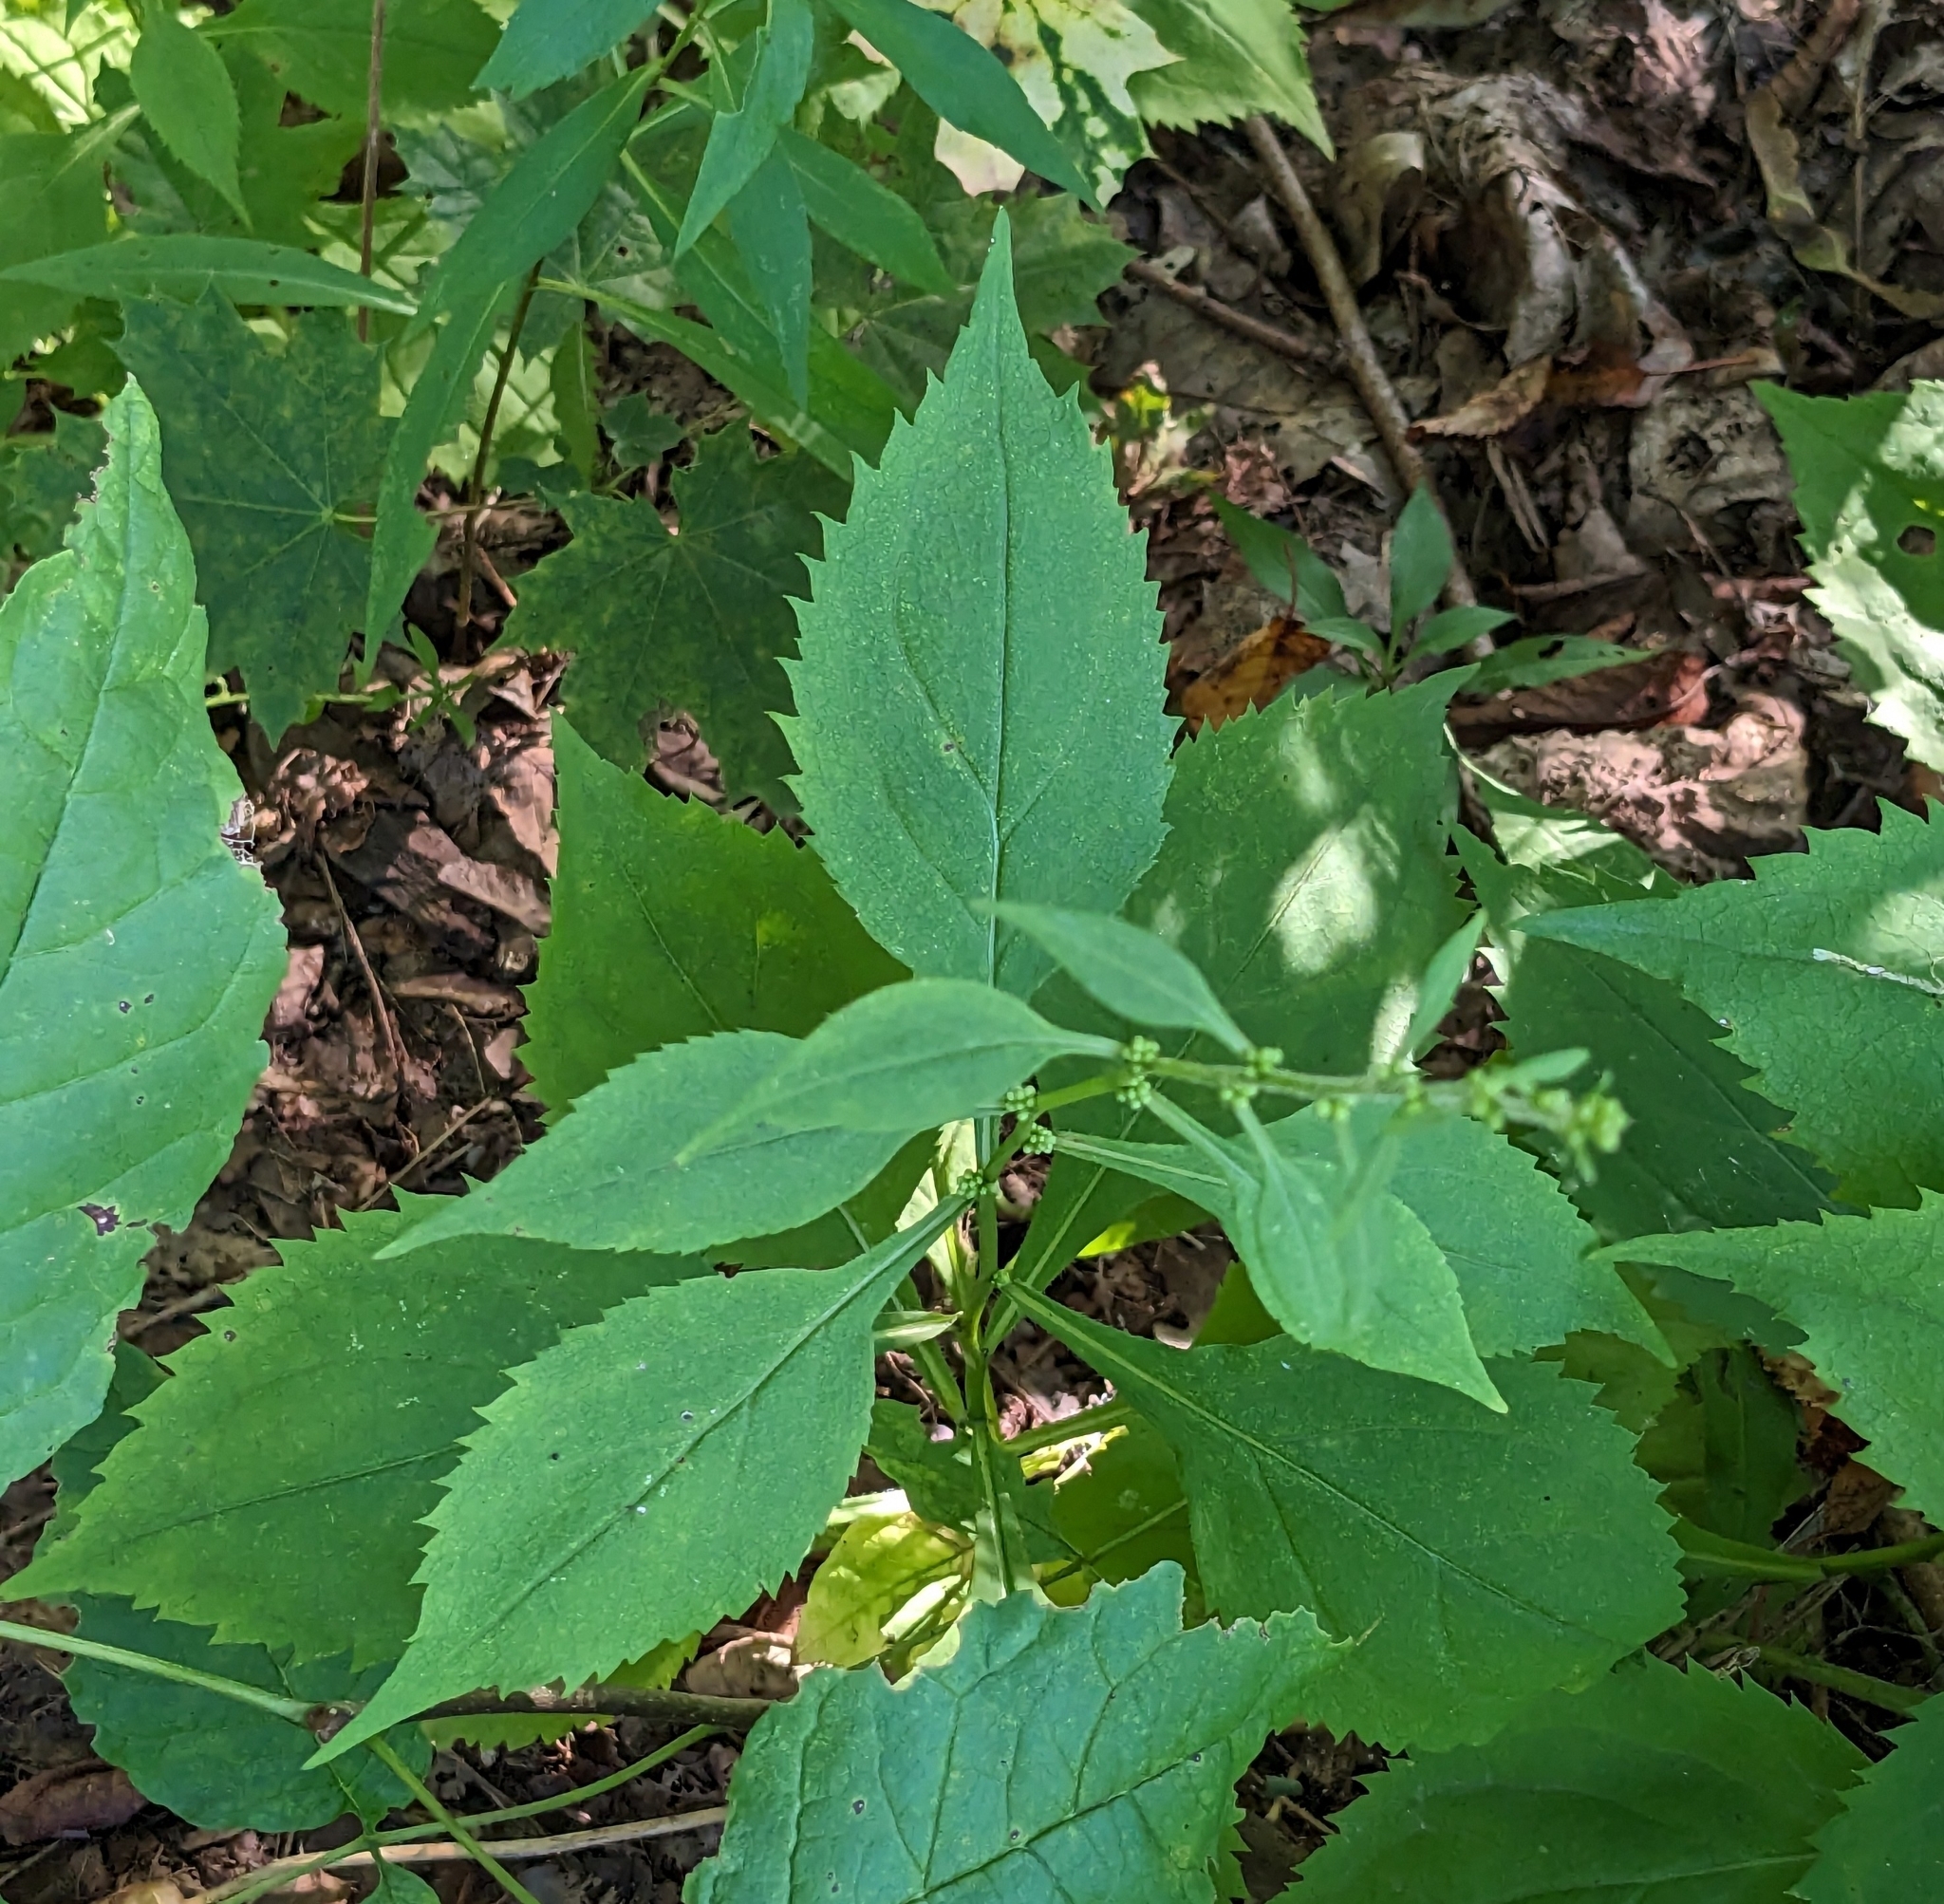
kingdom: Plantae
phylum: Tracheophyta
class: Magnoliopsida
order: Asterales
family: Asteraceae
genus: Solidago
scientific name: Solidago flexicaulis
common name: Zig-zag goldenrod
